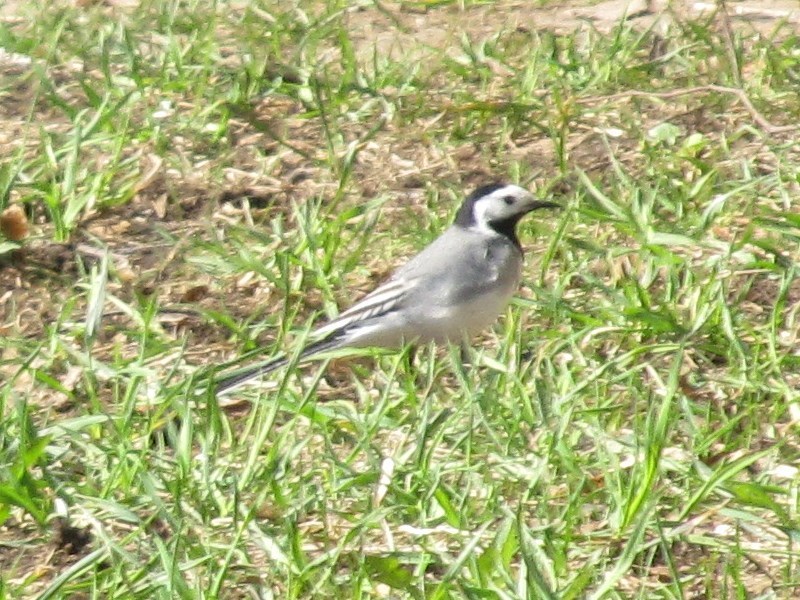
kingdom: Animalia
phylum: Chordata
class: Aves
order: Passeriformes
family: Motacillidae
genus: Motacilla
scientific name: Motacilla alba
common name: White wagtail
